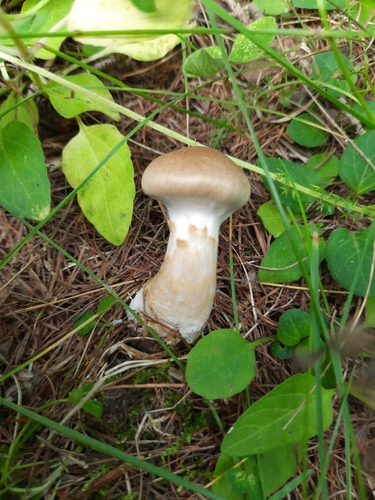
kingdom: Fungi
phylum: Basidiomycota
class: Agaricomycetes
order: Agaricales
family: Cortinariaceae
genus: Cortinarius
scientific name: Cortinarius
